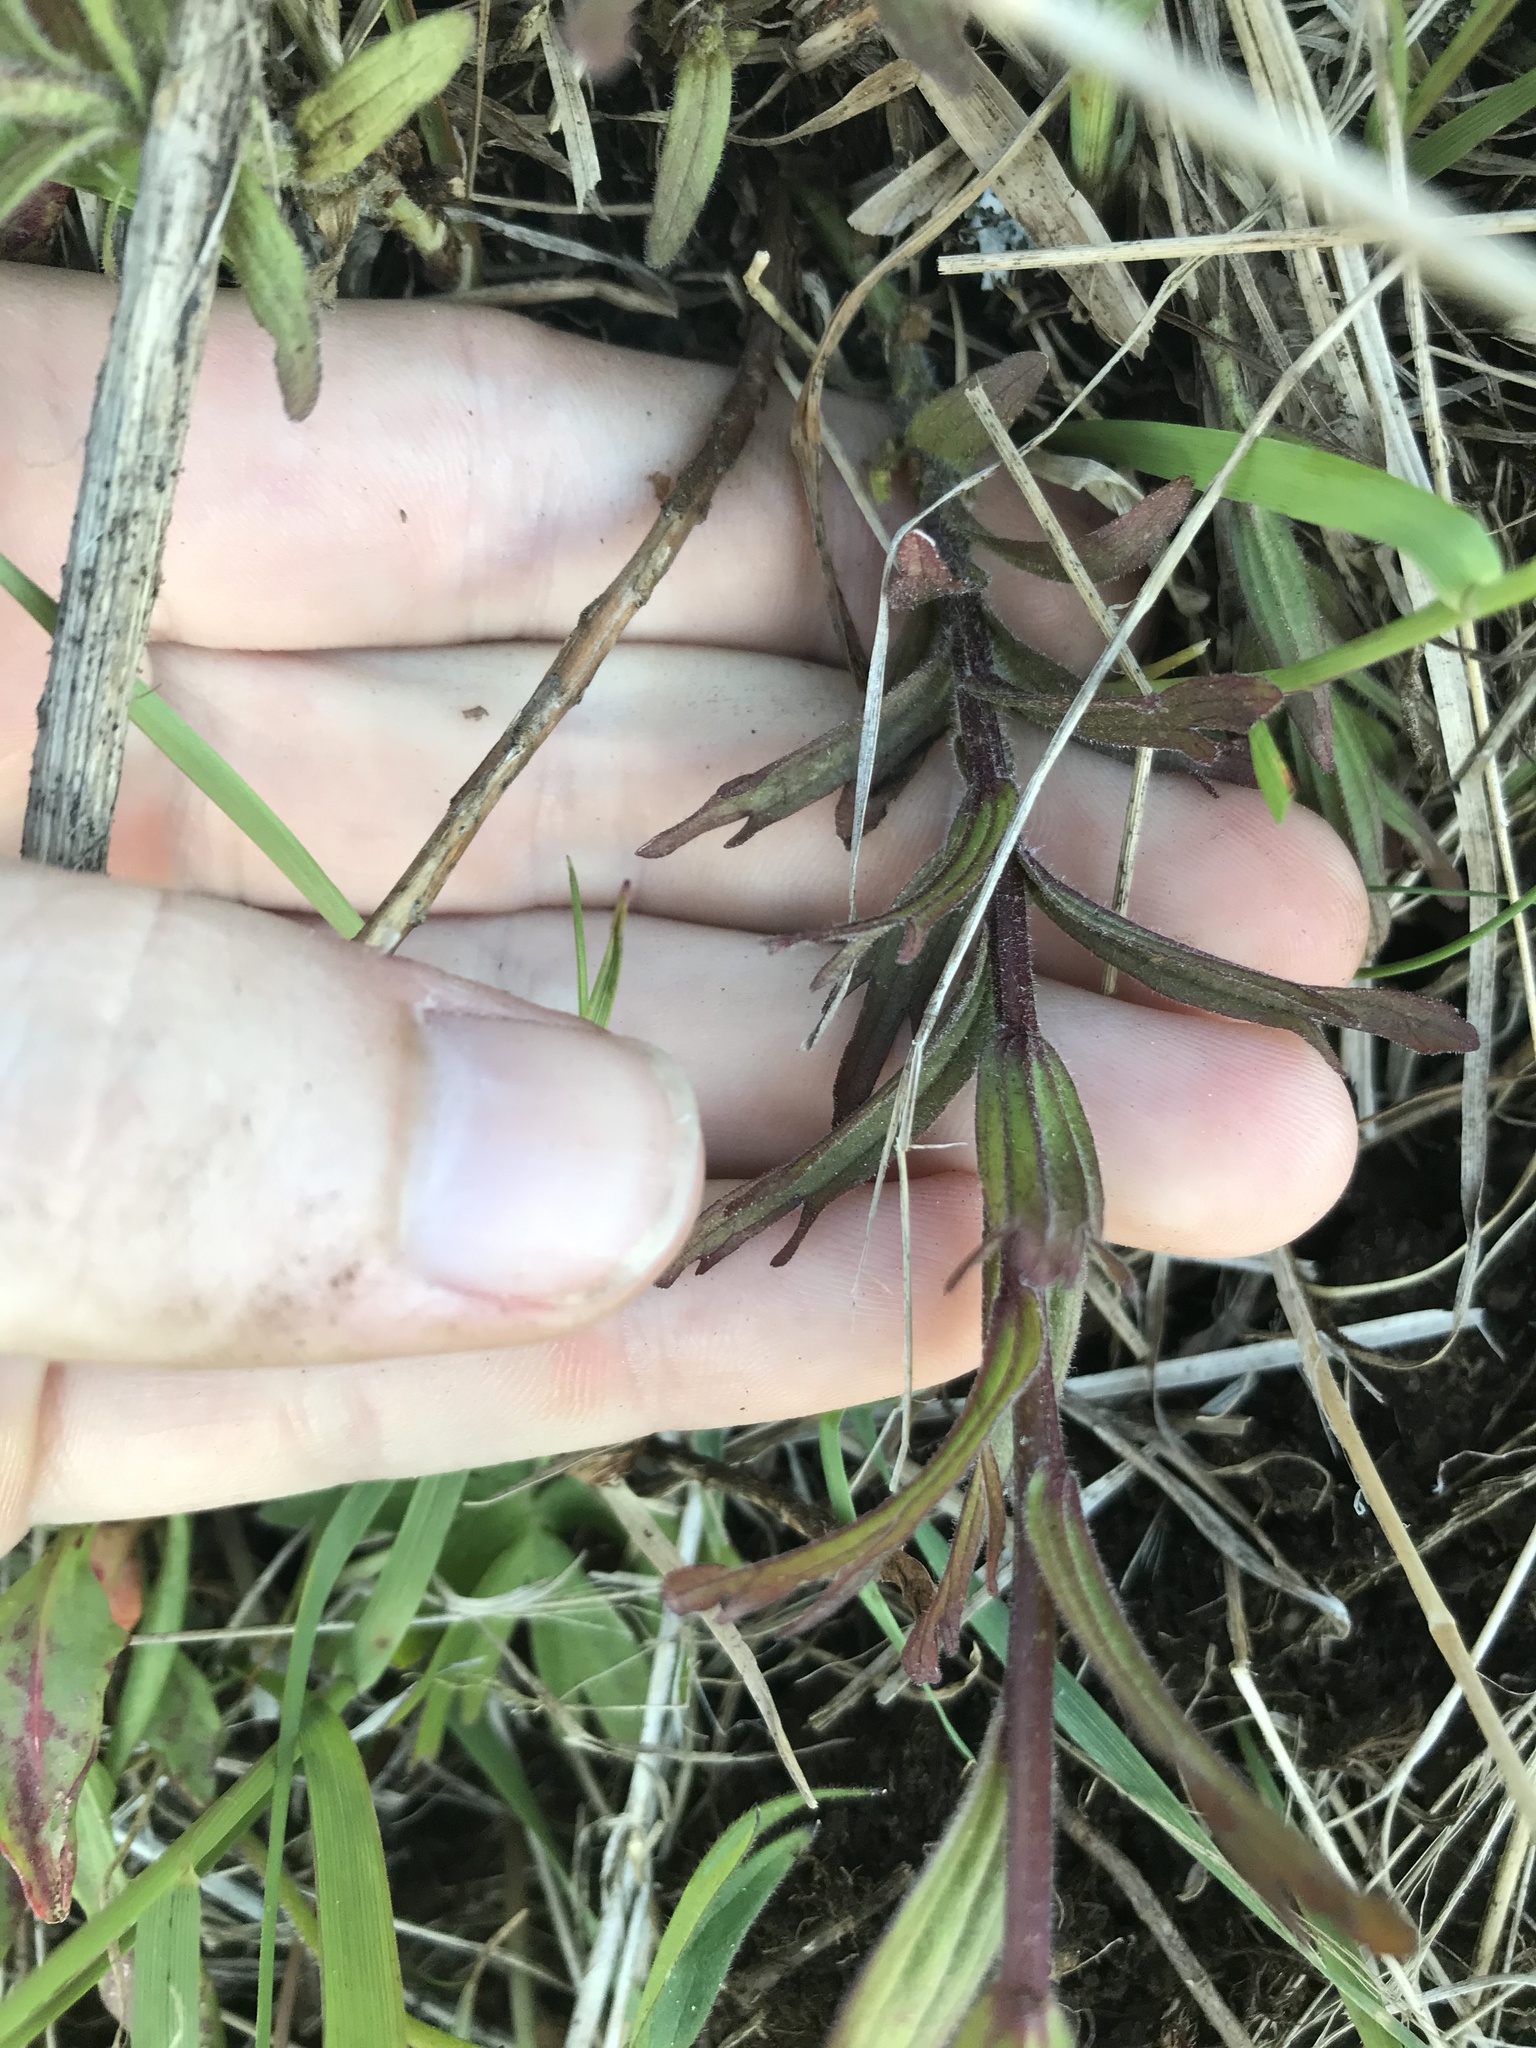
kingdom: Plantae
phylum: Tracheophyta
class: Magnoliopsida
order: Lamiales
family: Orobanchaceae
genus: Castilleja
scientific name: Castilleja hispida
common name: Bristly paintbrush
